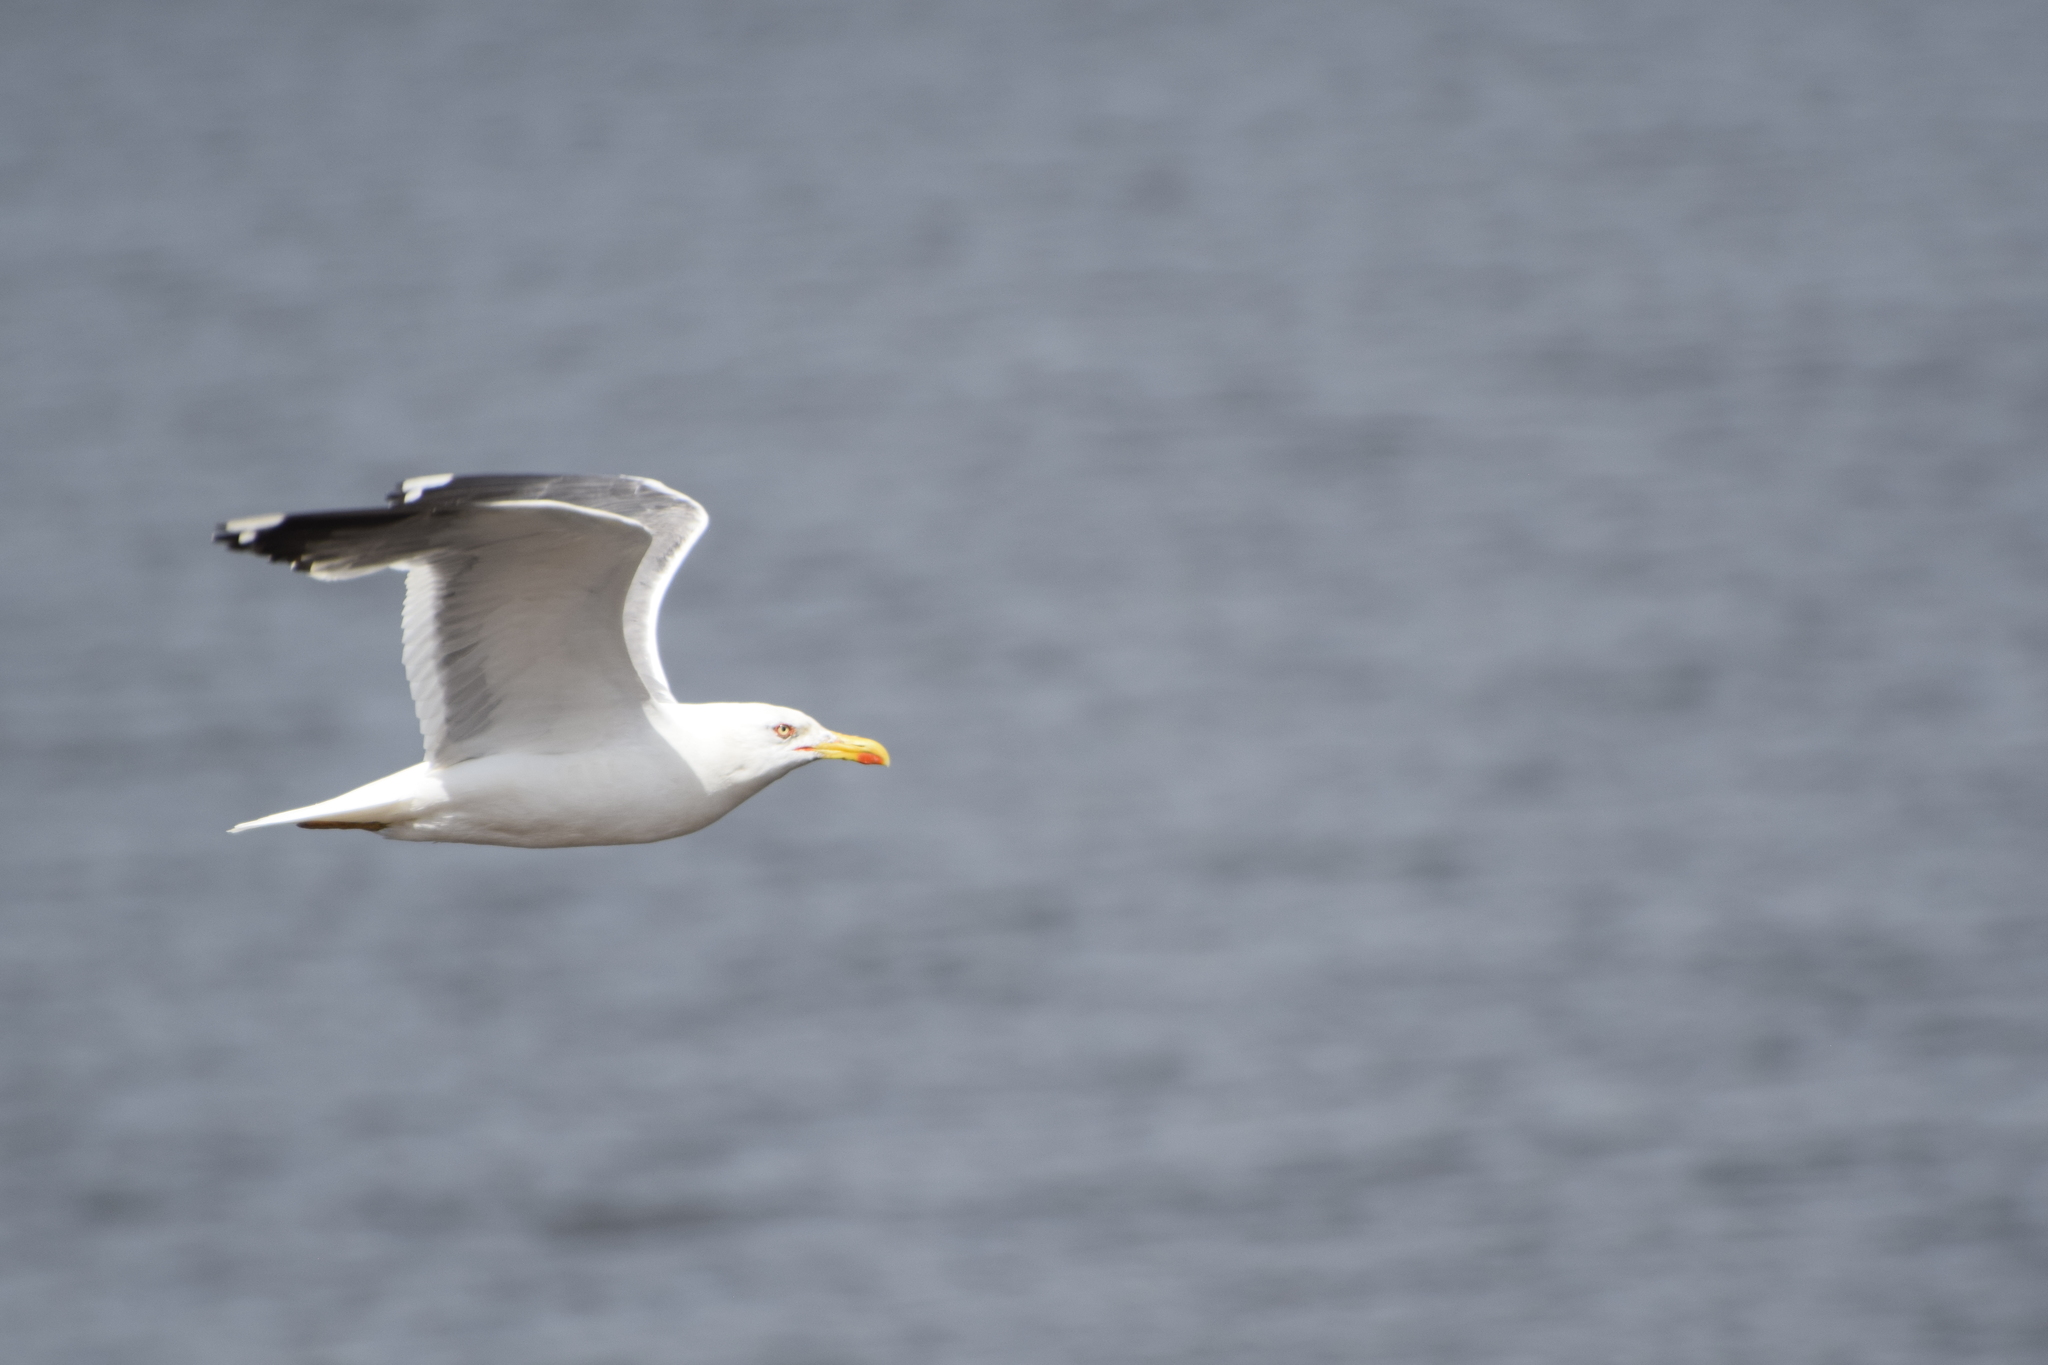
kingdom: Animalia
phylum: Chordata
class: Aves
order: Charadriiformes
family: Laridae
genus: Larus
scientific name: Larus argentatus
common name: Herring gull
